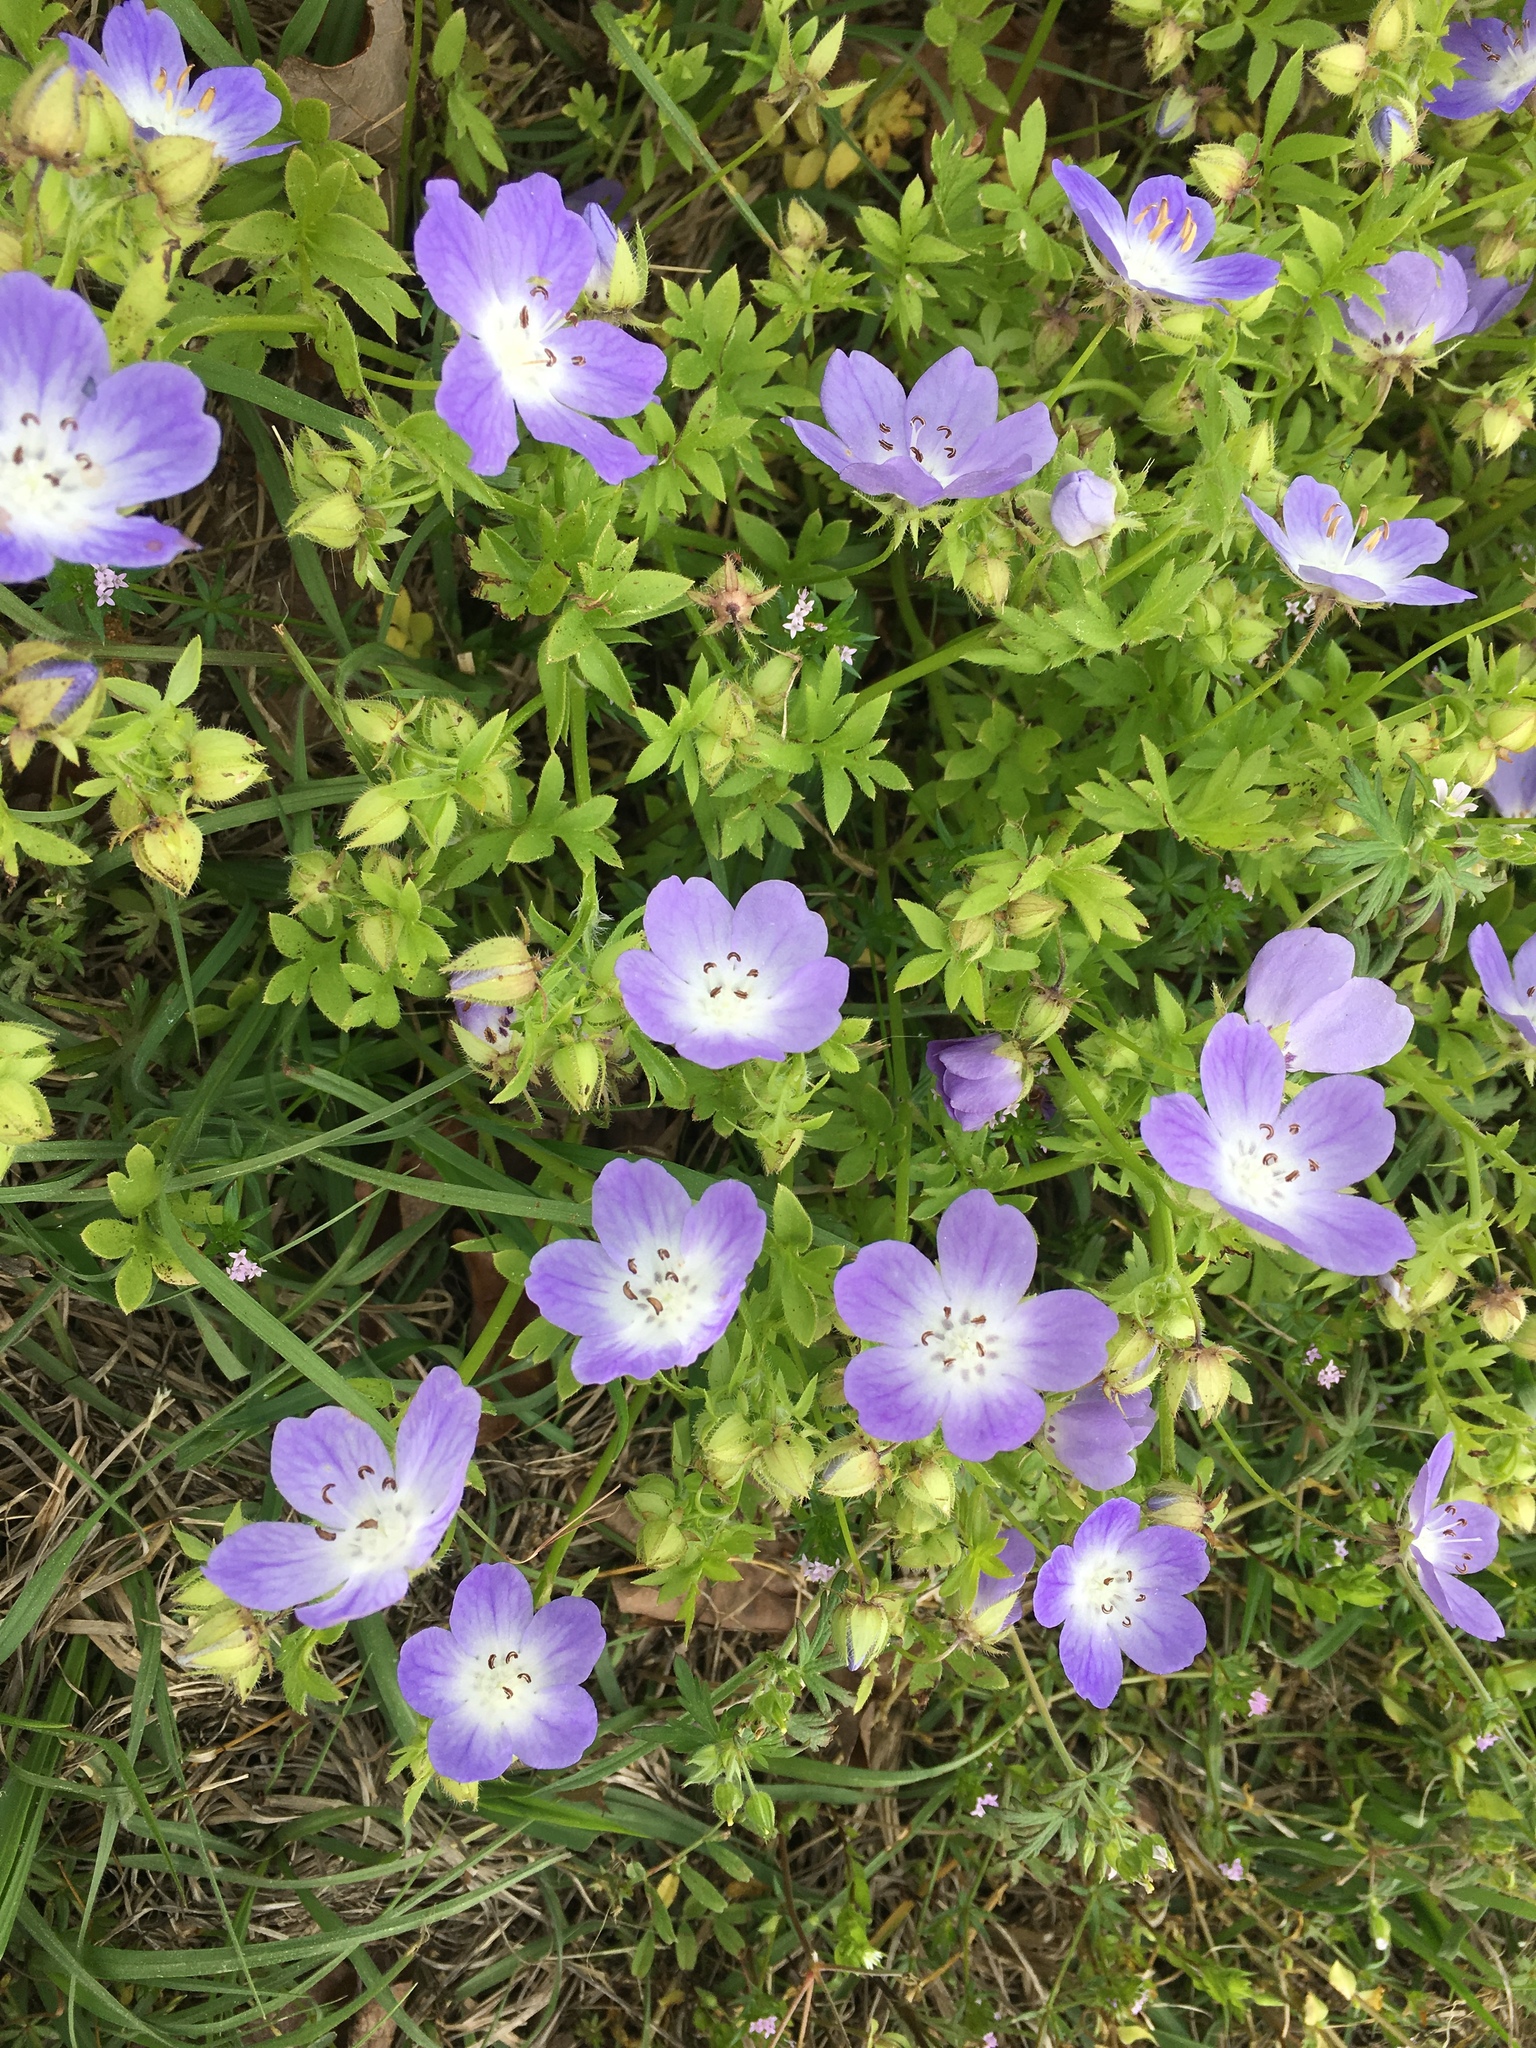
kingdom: Plantae
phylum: Tracheophyta
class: Magnoliopsida
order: Boraginales
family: Hydrophyllaceae
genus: Nemophila
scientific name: Nemophila phacelioides
